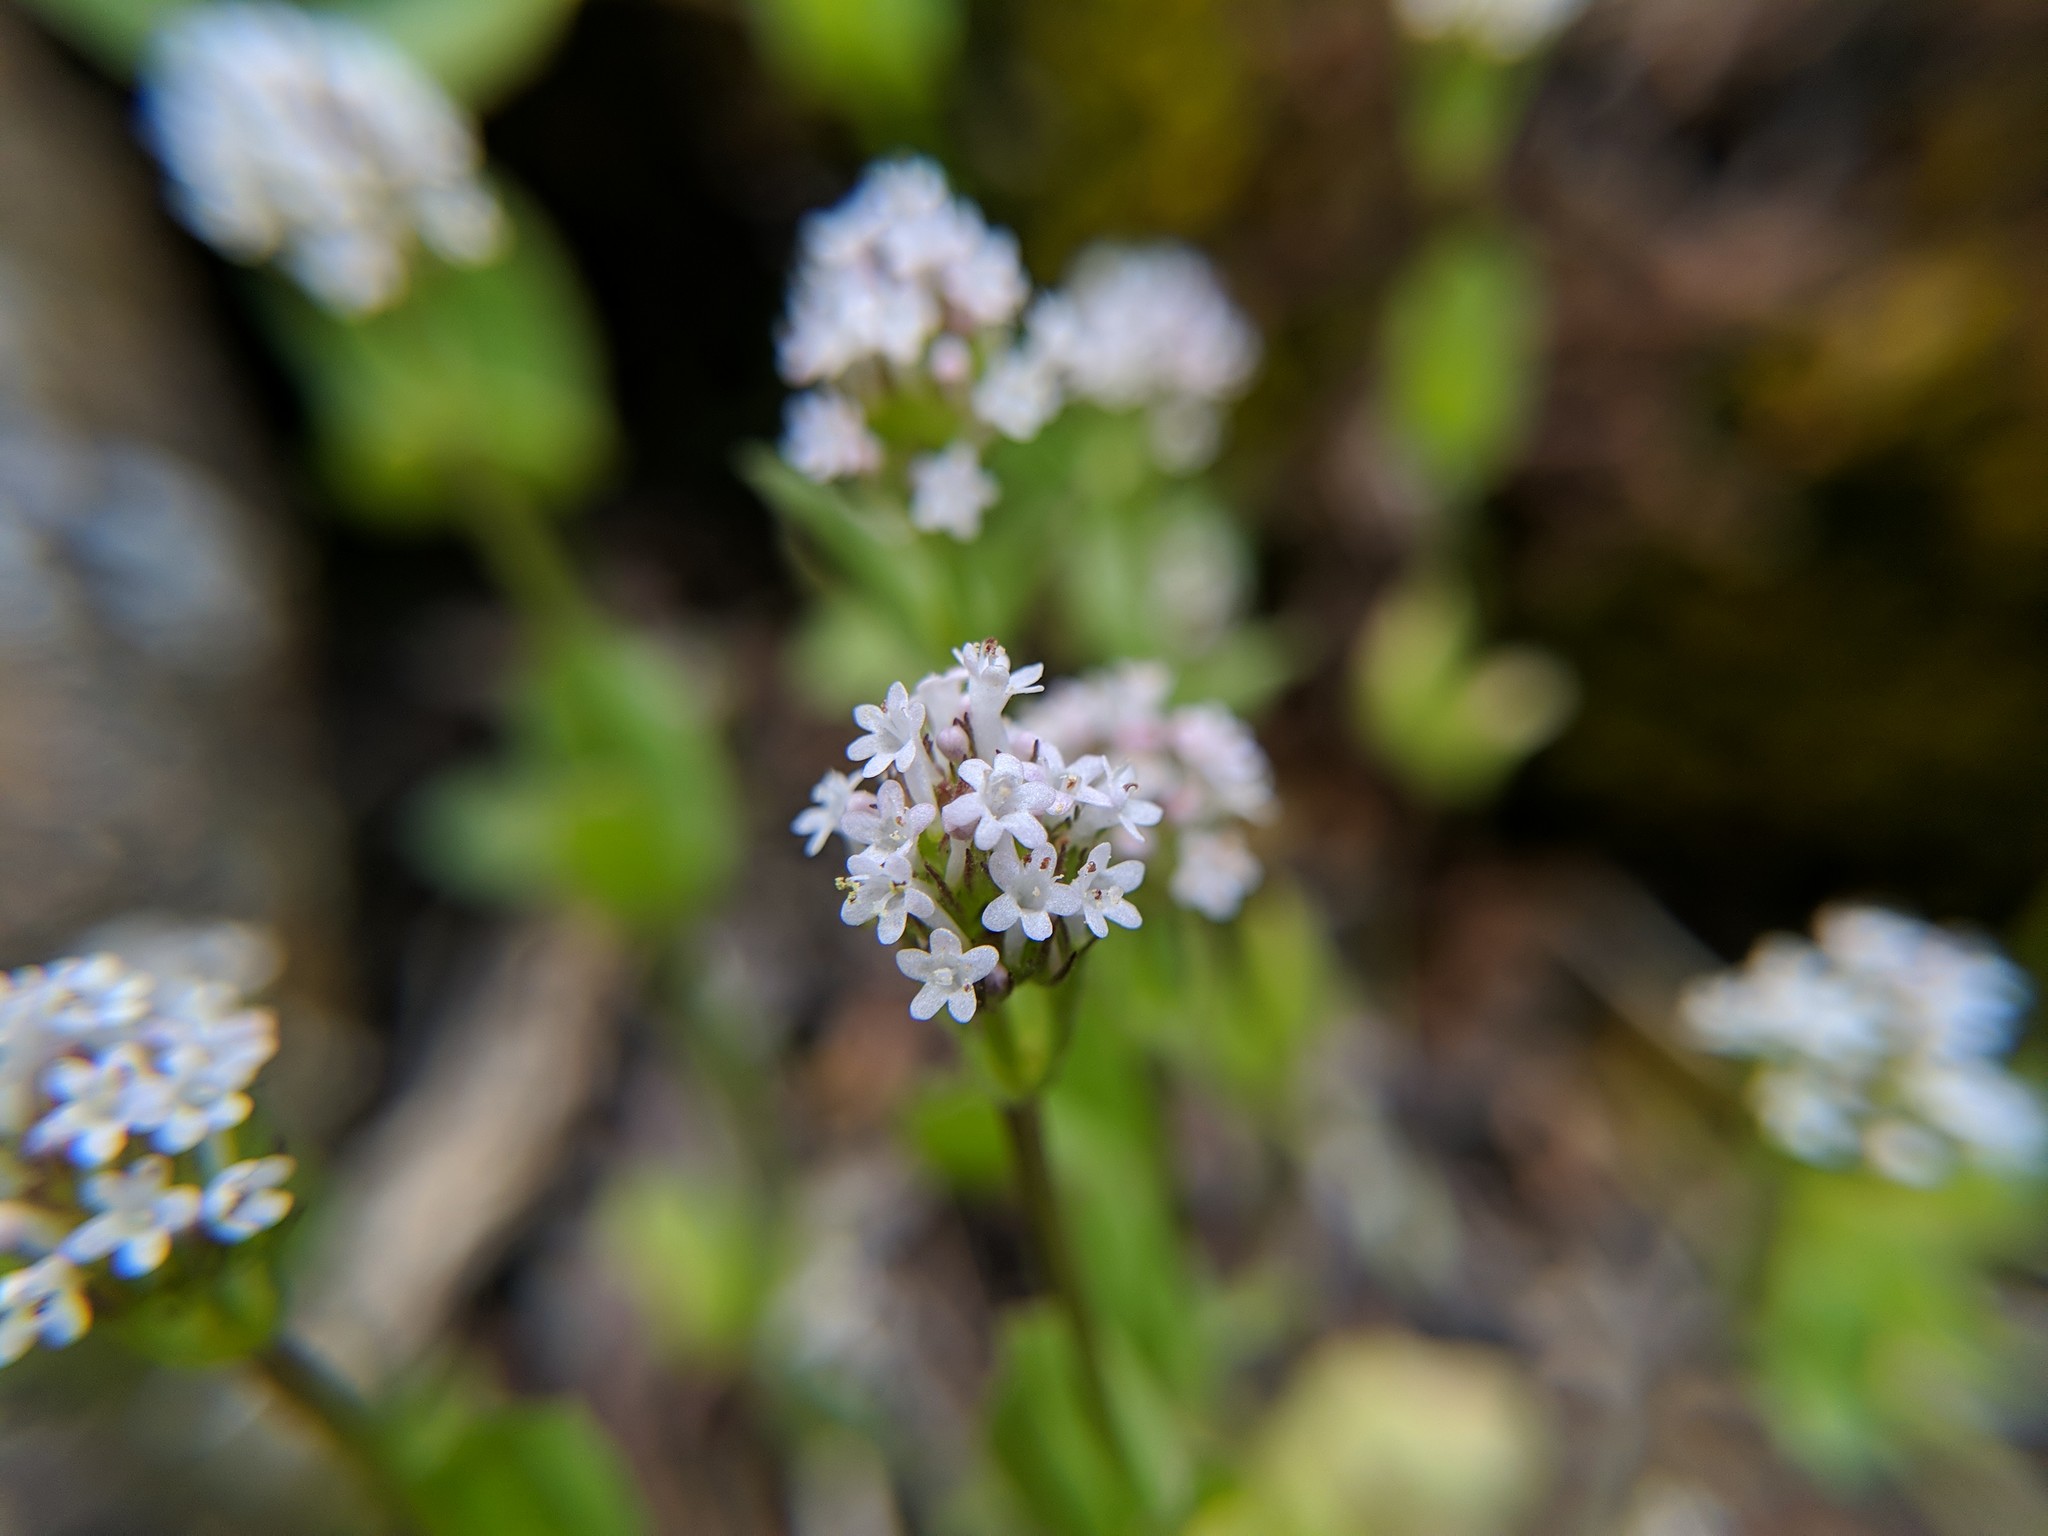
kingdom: Plantae
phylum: Tracheophyta
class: Magnoliopsida
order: Dipsacales
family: Caprifoliaceae
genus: Plectritis
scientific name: Plectritis macroptera
